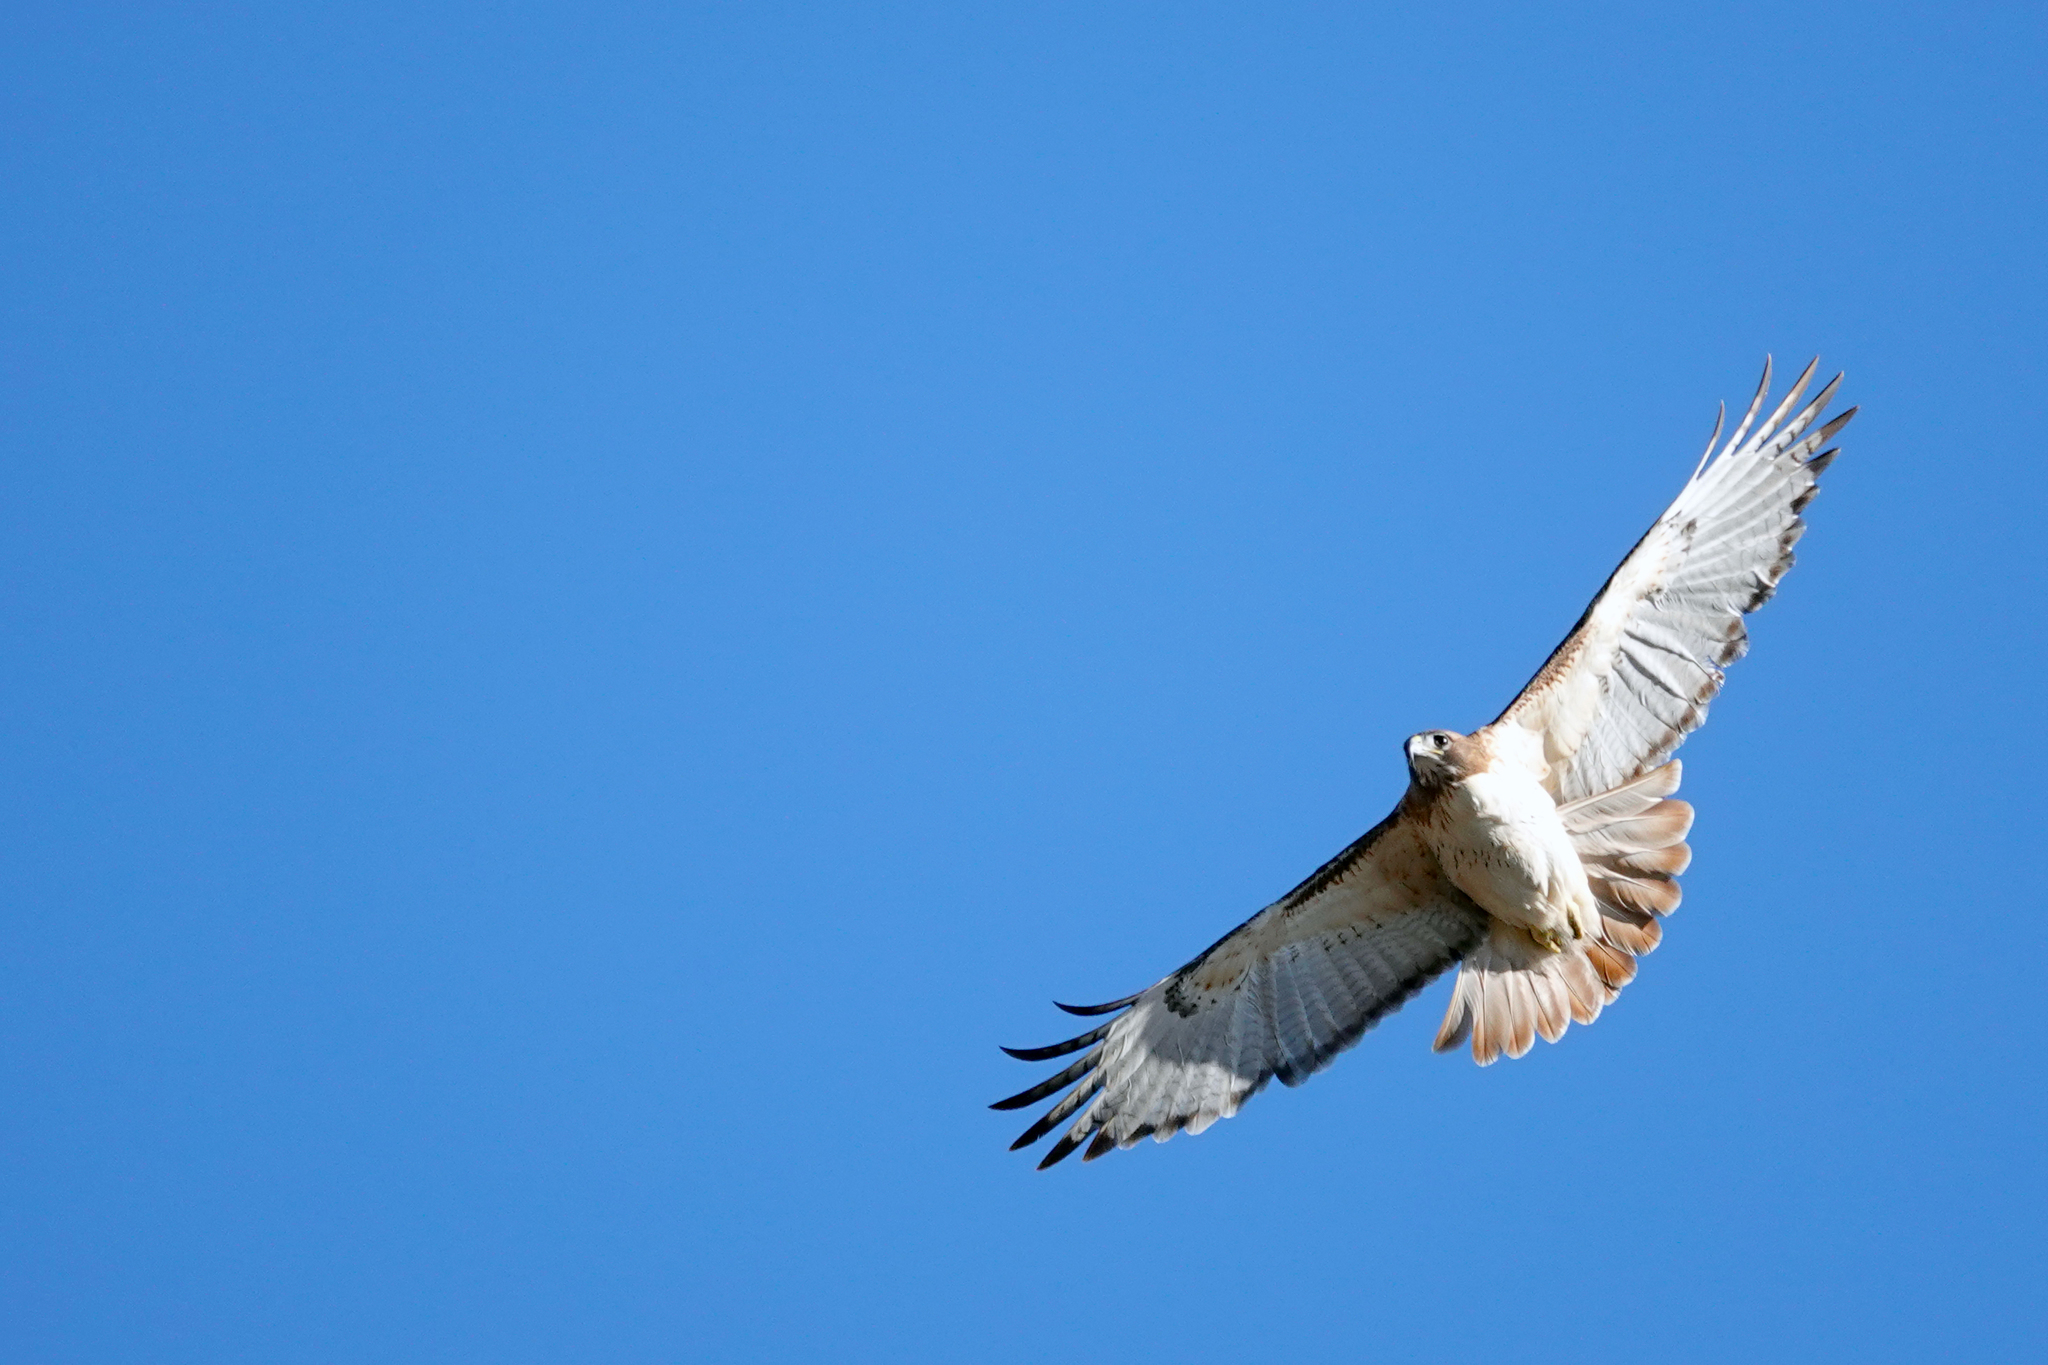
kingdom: Animalia
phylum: Chordata
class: Aves
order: Accipitriformes
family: Accipitridae
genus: Buteo
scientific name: Buteo jamaicensis
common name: Red-tailed hawk
